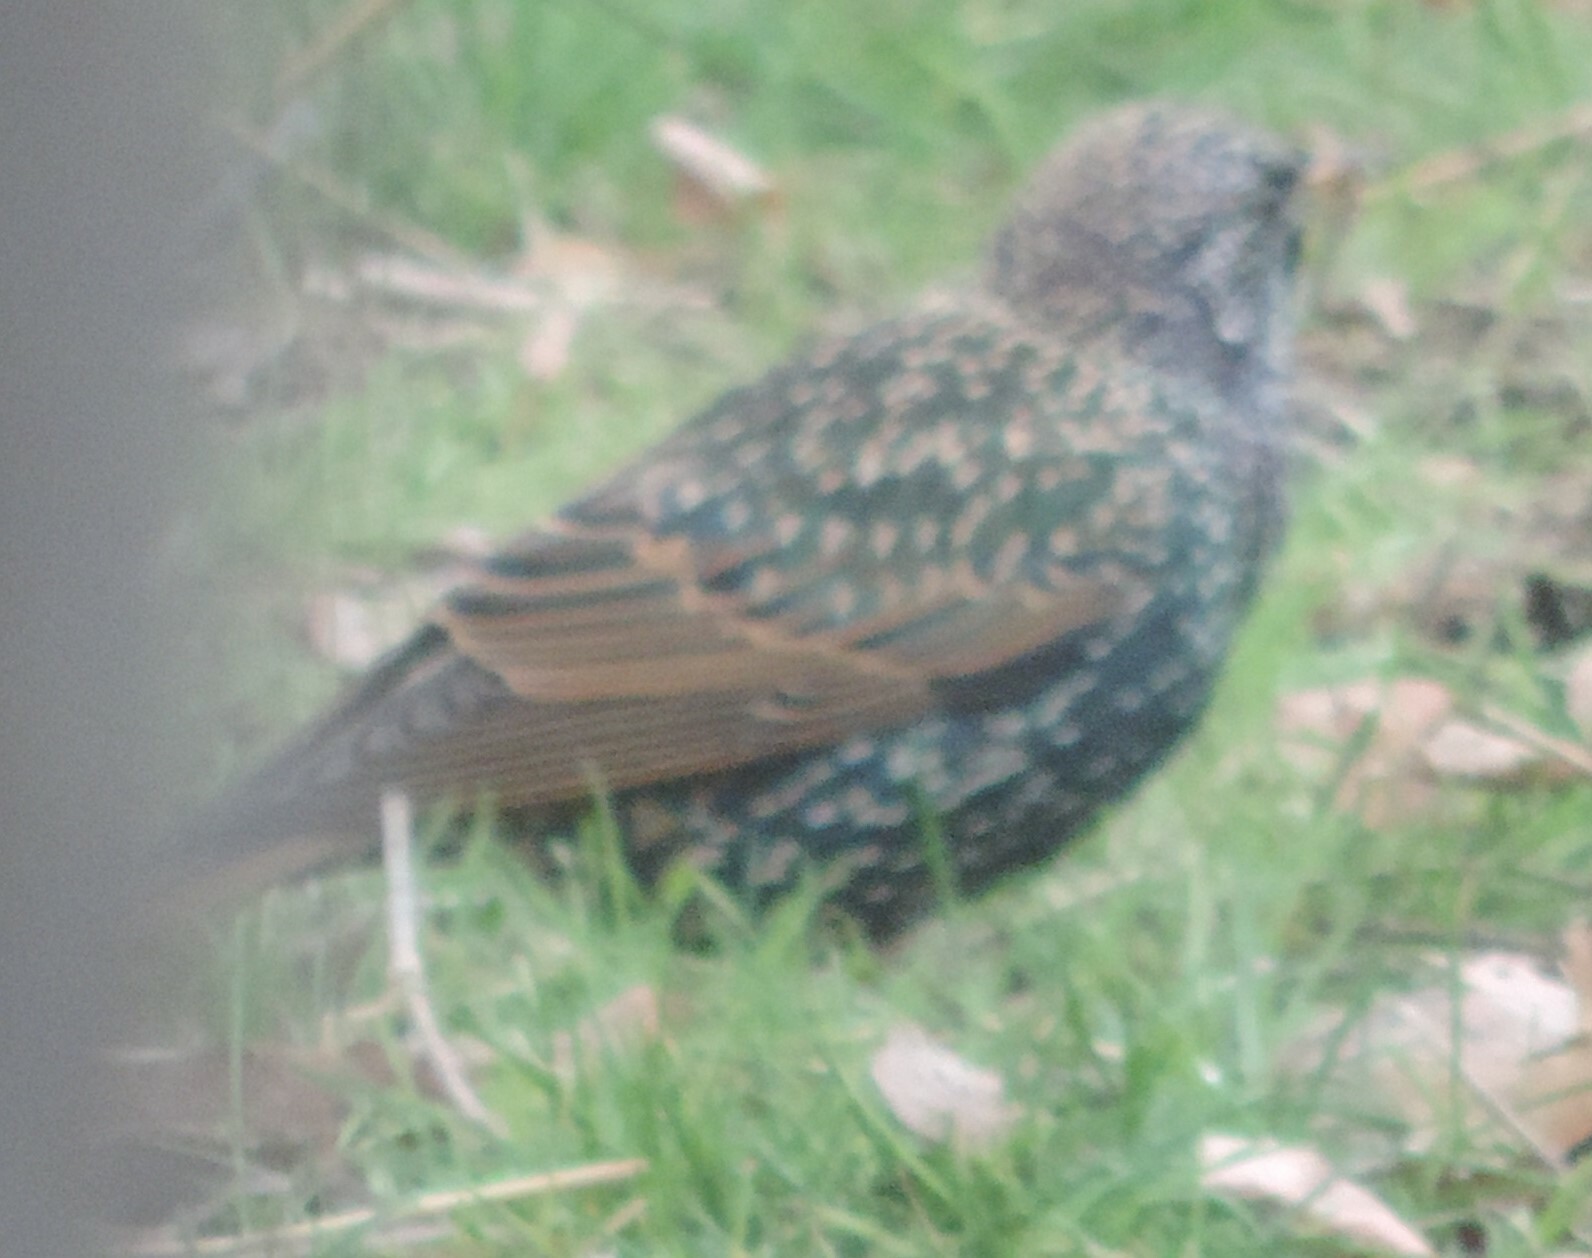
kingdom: Animalia
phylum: Chordata
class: Aves
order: Passeriformes
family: Sturnidae
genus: Sturnus
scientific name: Sturnus vulgaris
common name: Common starling
